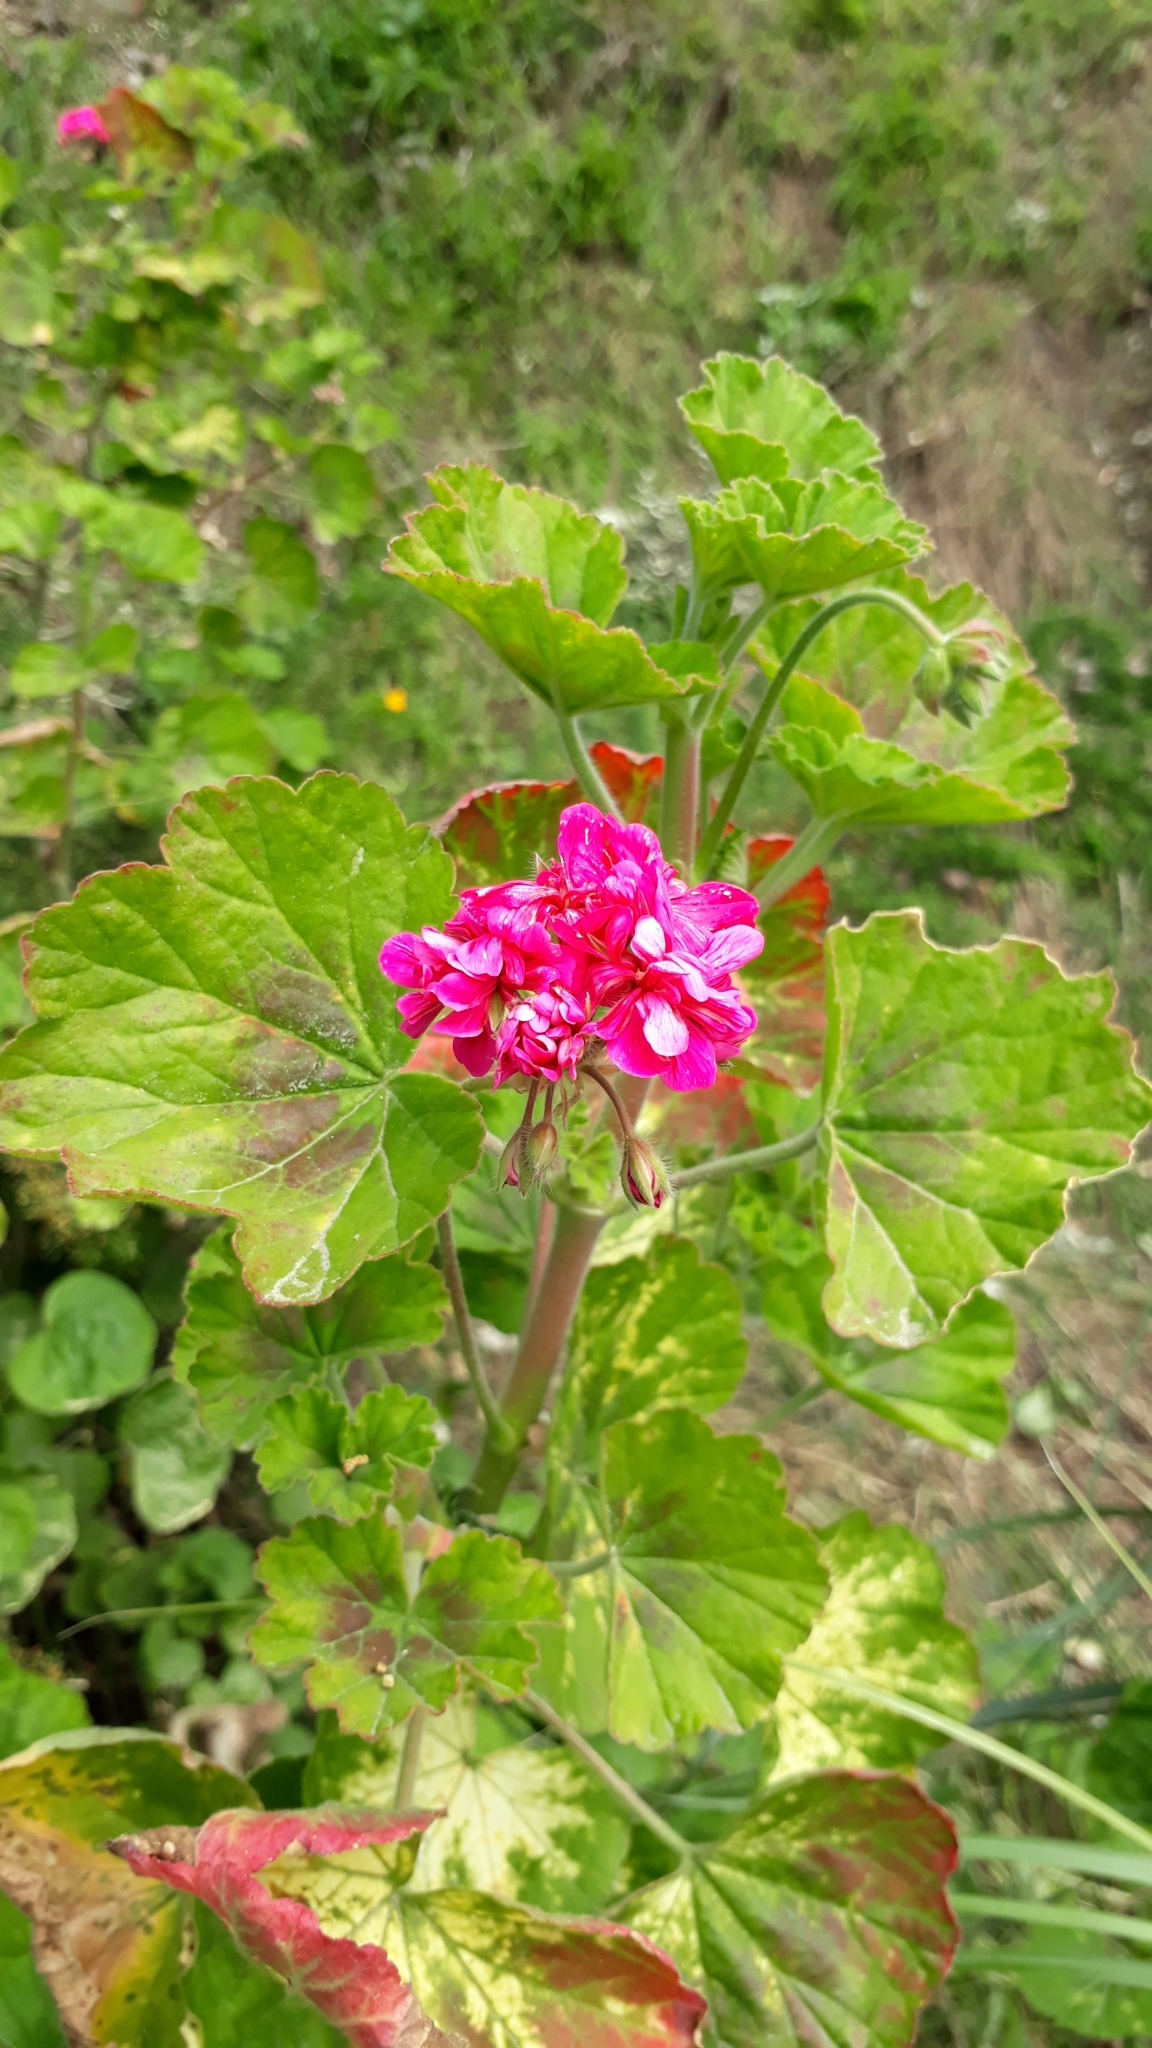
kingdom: Plantae
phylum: Tracheophyta
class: Magnoliopsida
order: Geraniales
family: Geraniaceae
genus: Pelargonium
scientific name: Pelargonium hybridum
